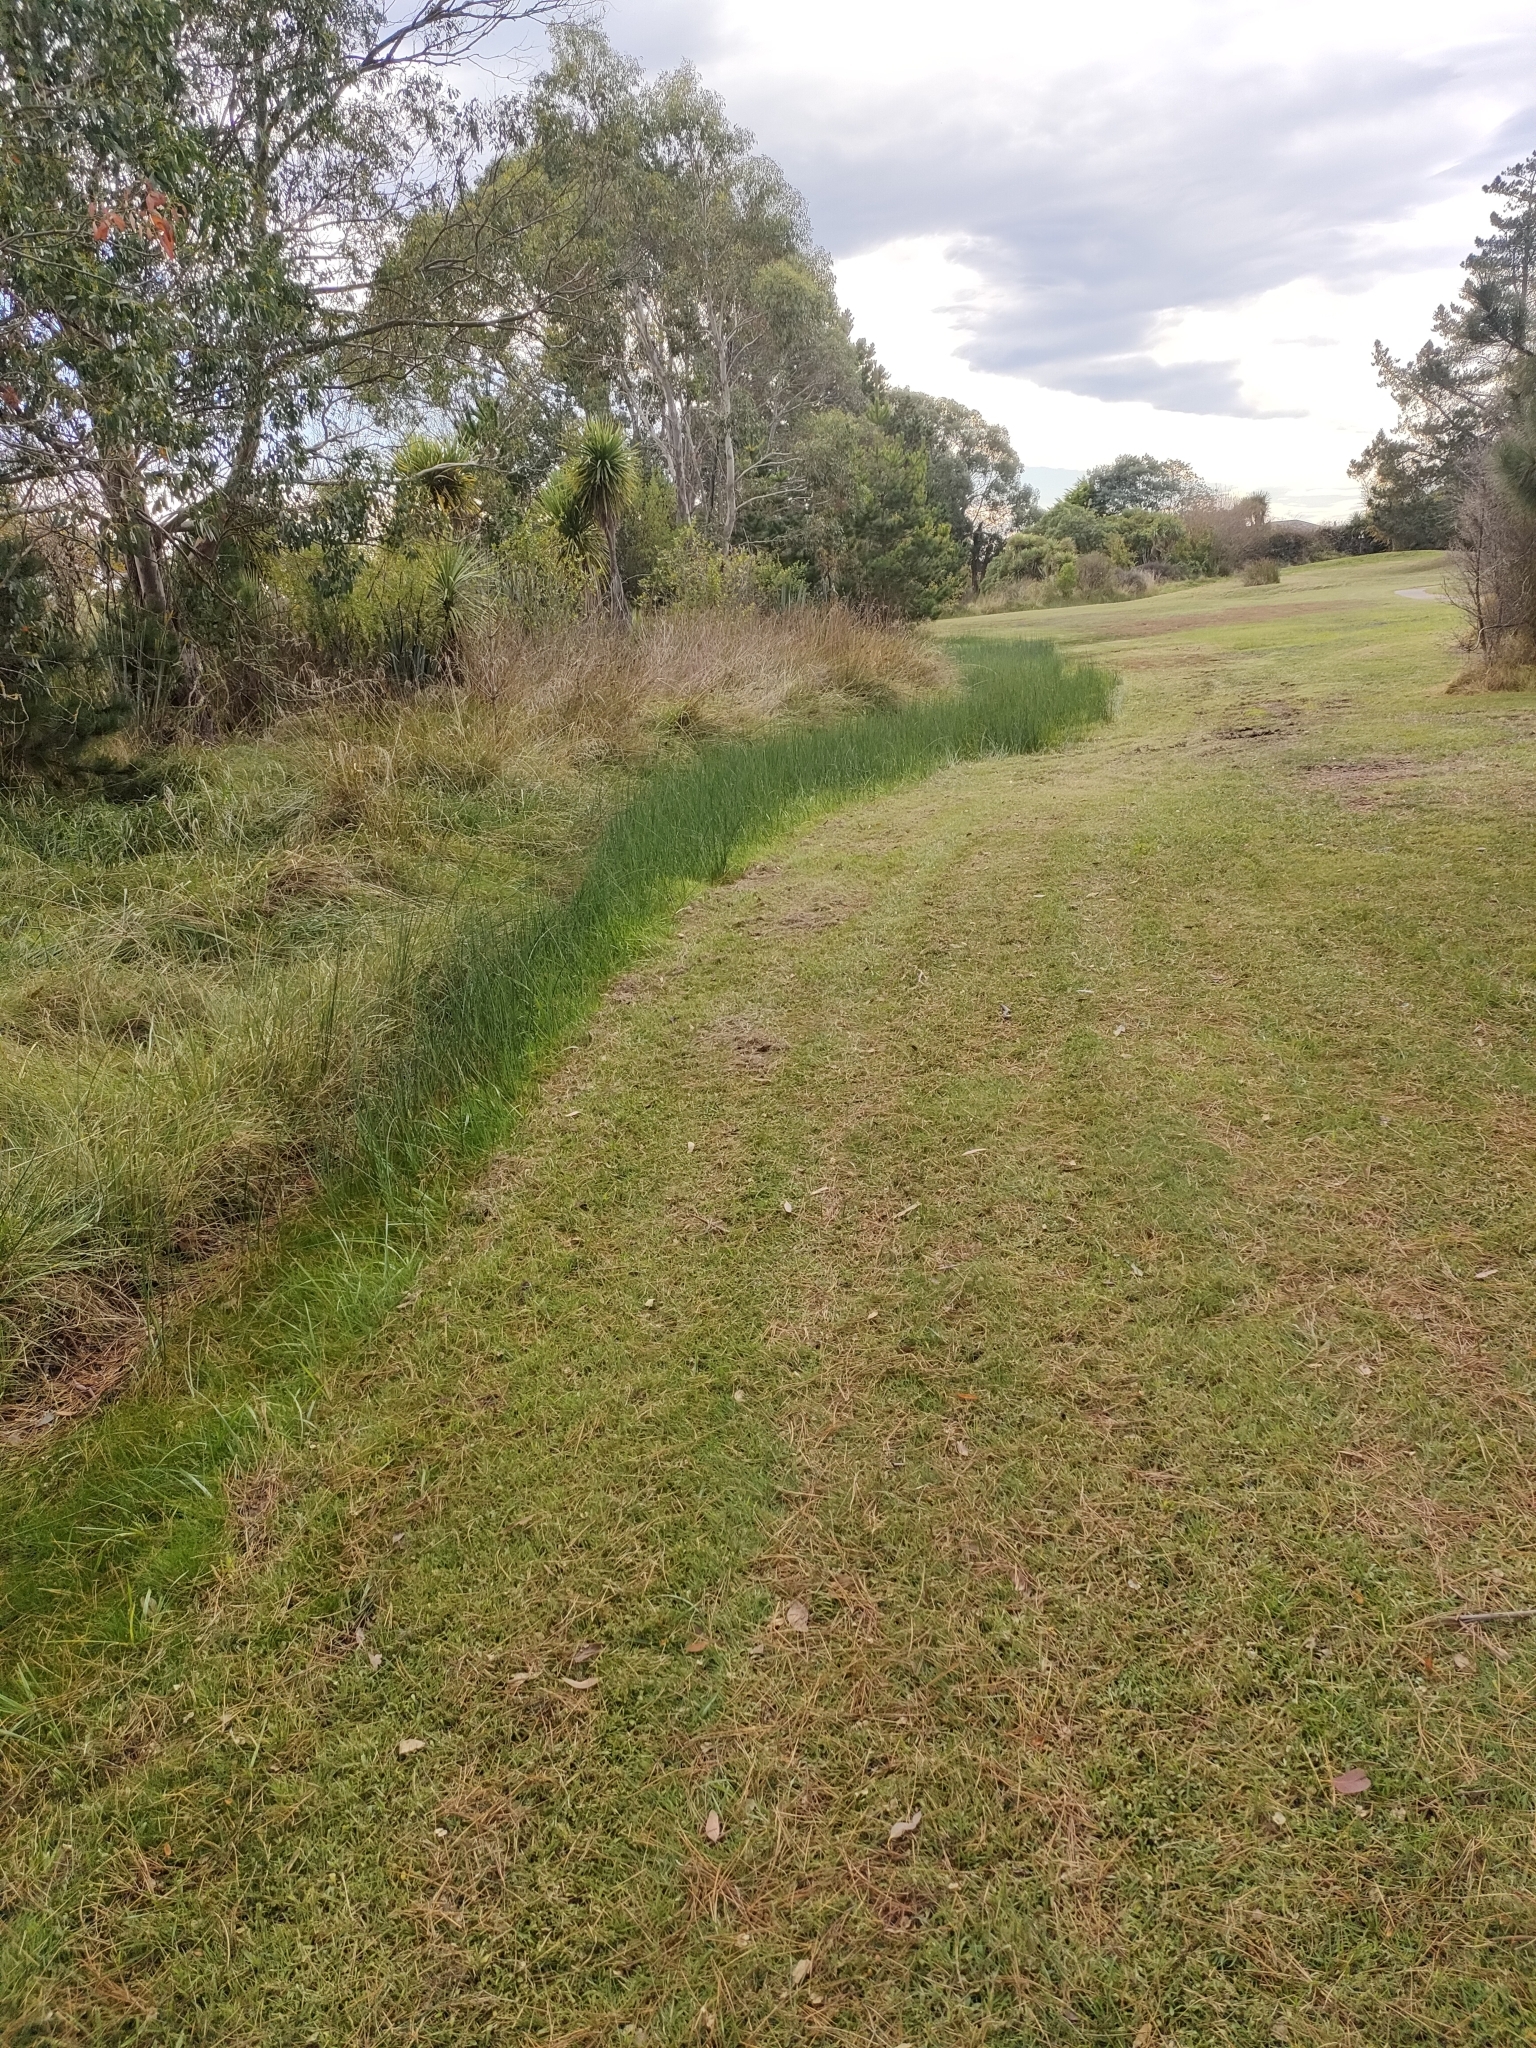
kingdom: Plantae
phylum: Tracheophyta
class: Liliopsida
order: Poales
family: Cyperaceae
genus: Schoenoplectus
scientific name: Schoenoplectus pungens
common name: Sharp club-rush
